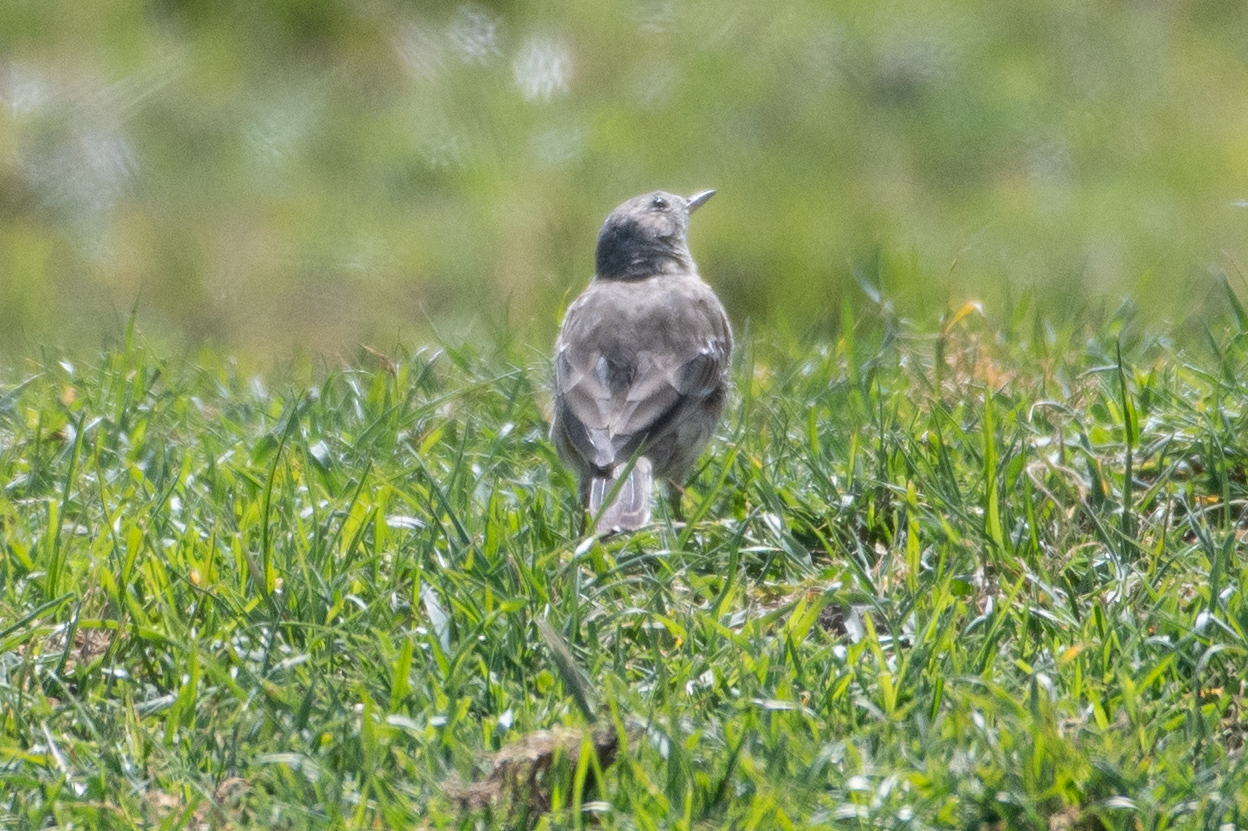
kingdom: Animalia
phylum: Chordata
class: Aves
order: Passeriformes
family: Motacillidae
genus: Anthus
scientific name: Anthus rubescens
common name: Buff-bellied pipit
